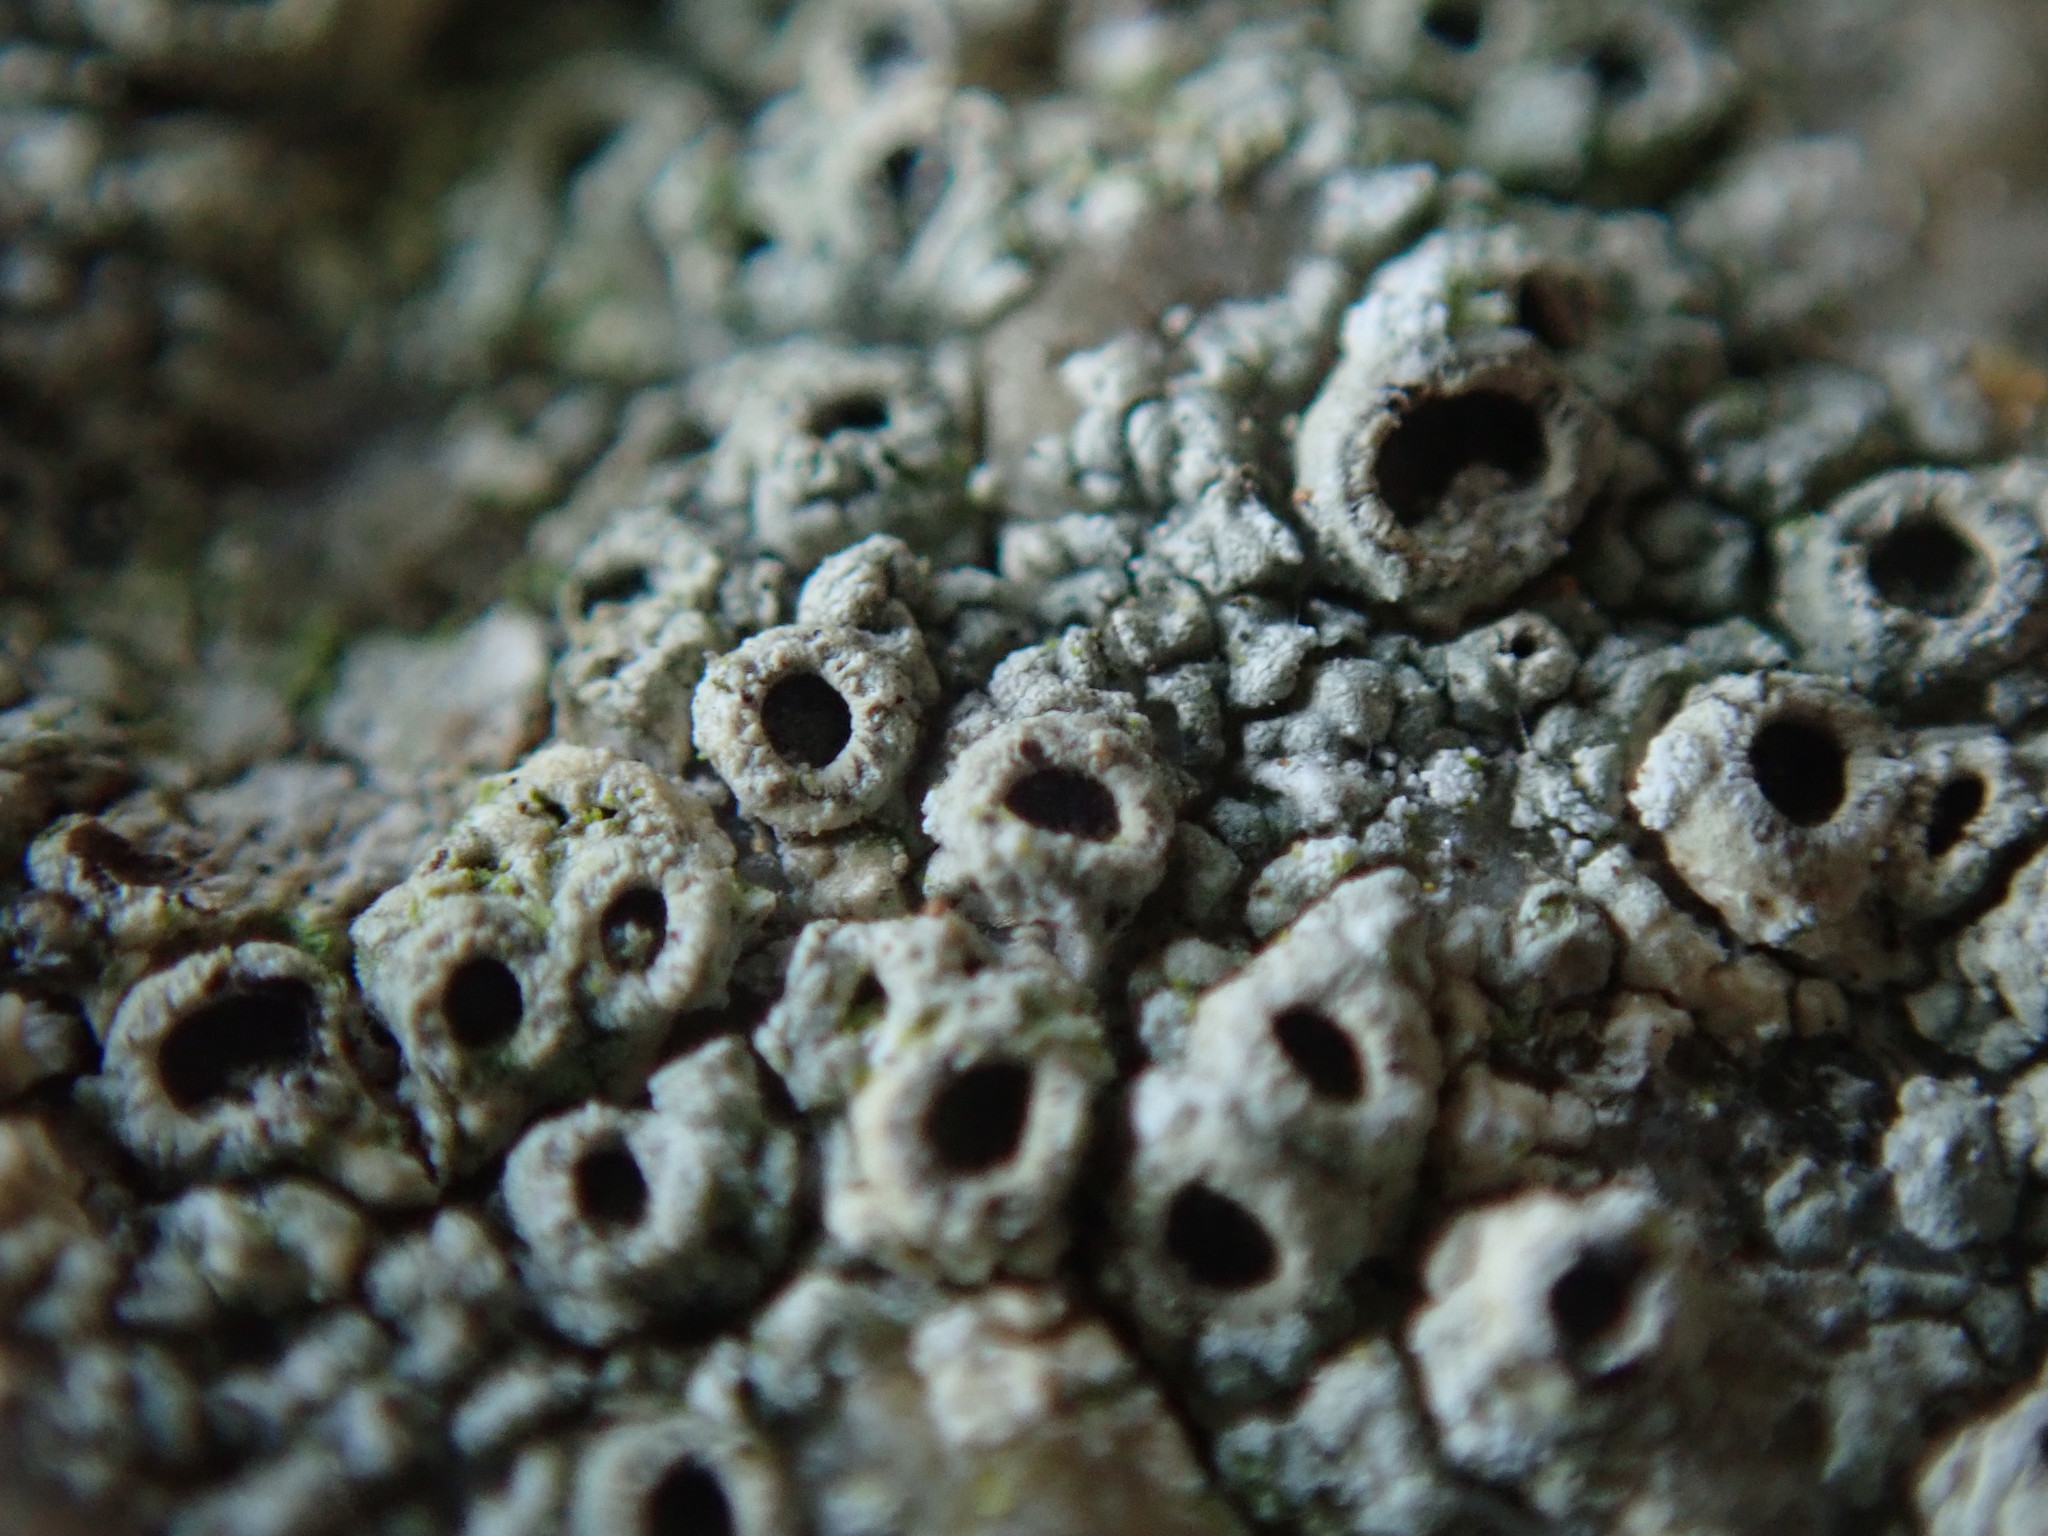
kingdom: Fungi
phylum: Ascomycota
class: Lecanoromycetes
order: Ostropales
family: Graphidaceae
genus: Diploschistes
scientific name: Diploschistes scruposus
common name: Crater lichen
